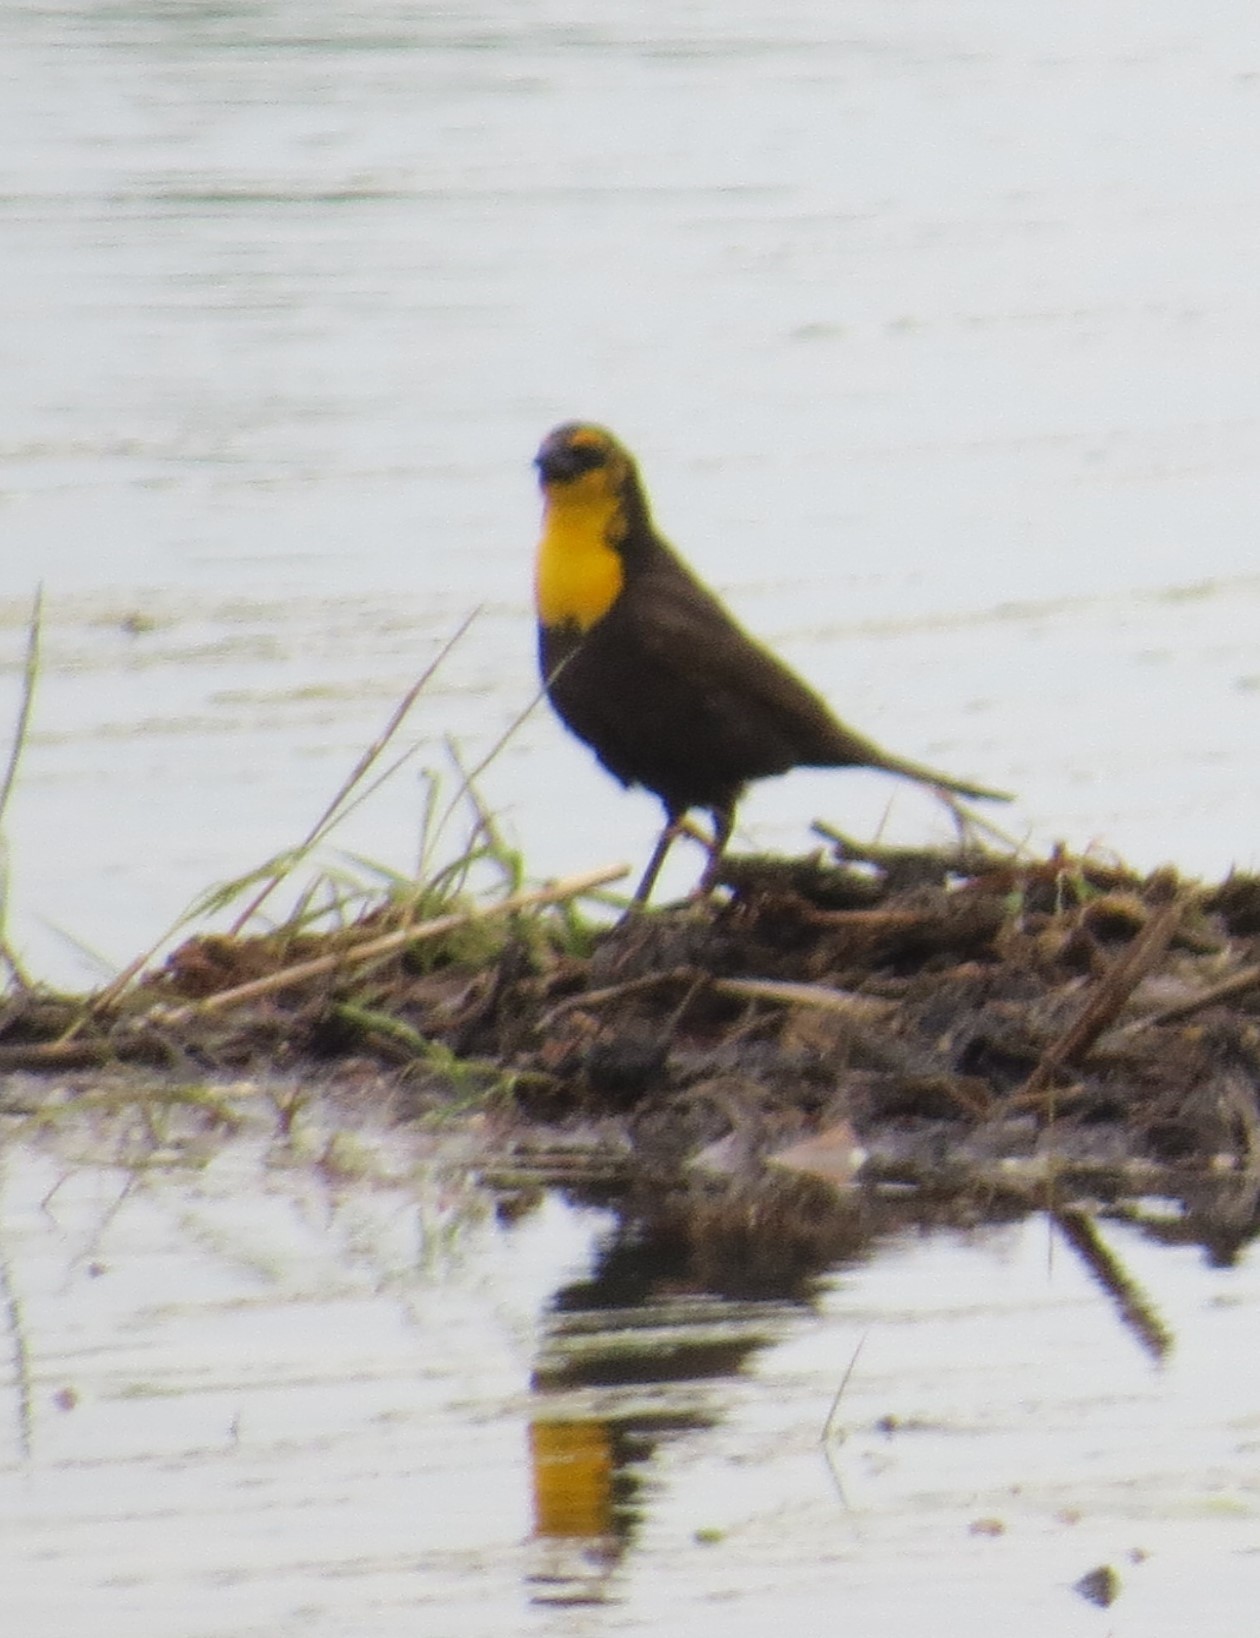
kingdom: Animalia
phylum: Chordata
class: Aves
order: Passeriformes
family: Icteridae
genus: Xanthocephalus
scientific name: Xanthocephalus xanthocephalus
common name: Yellow-headed blackbird
